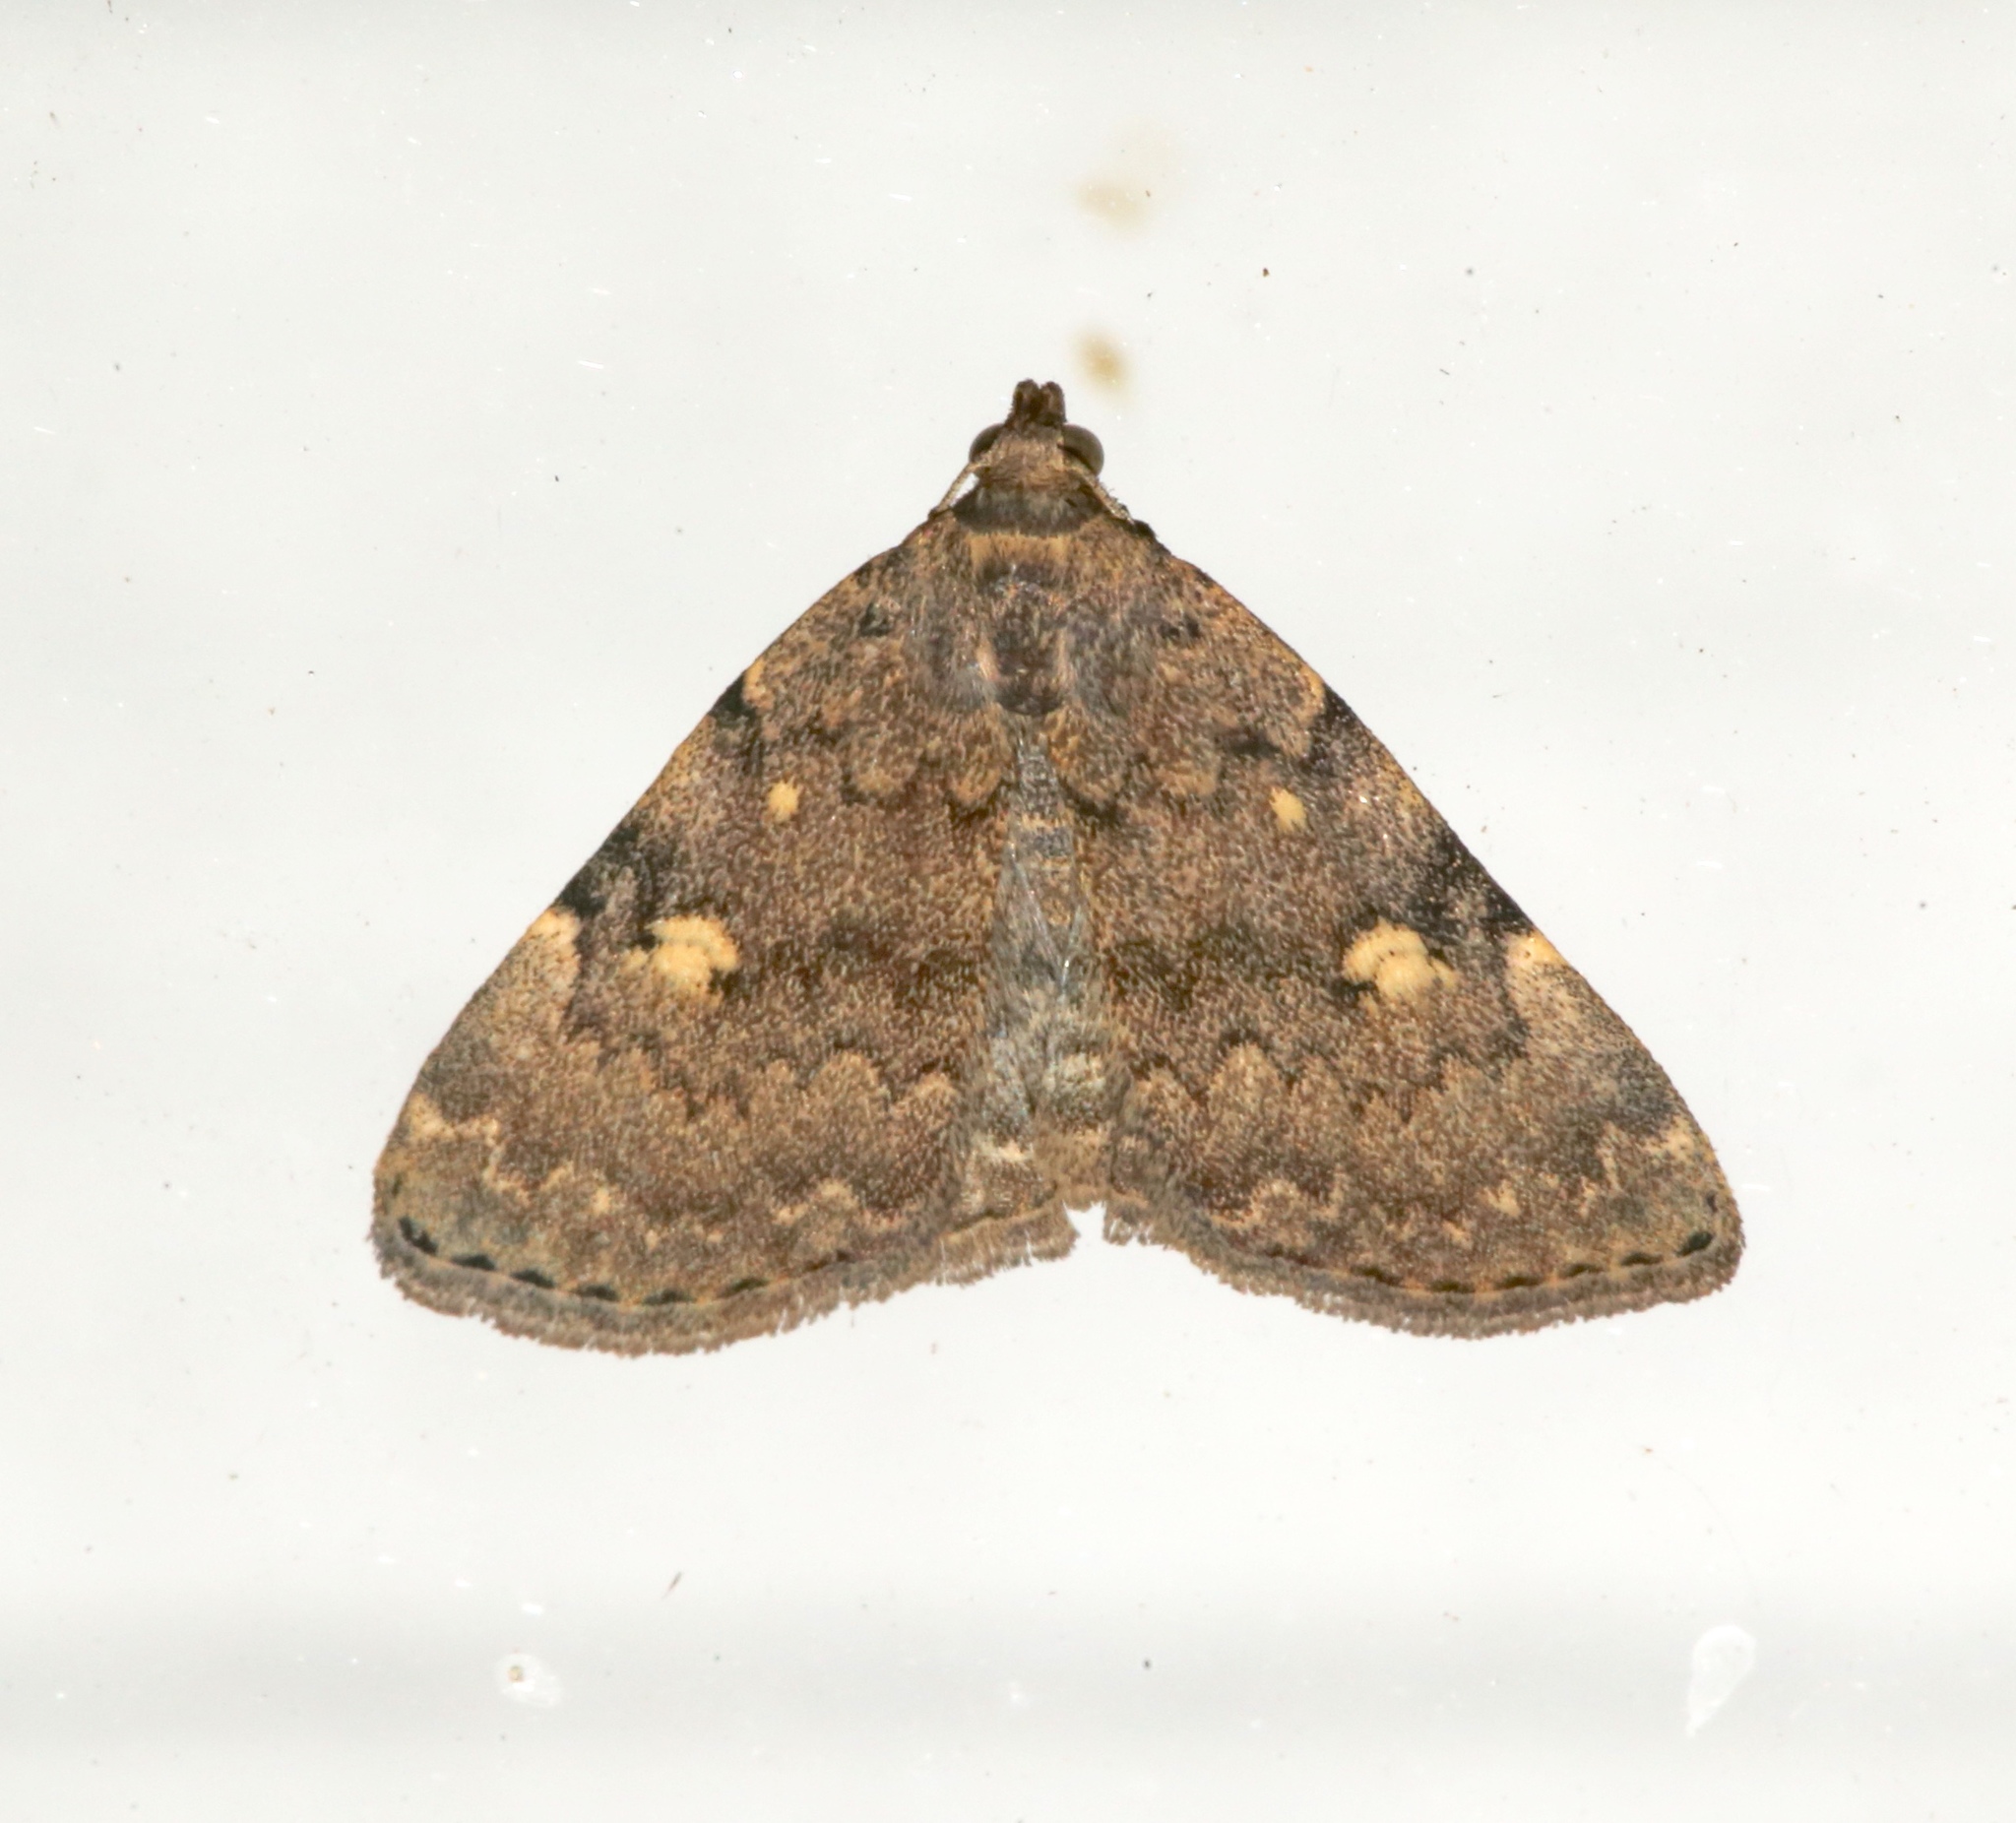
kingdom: Animalia
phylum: Arthropoda
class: Insecta
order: Lepidoptera
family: Erebidae
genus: Idia
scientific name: Idia aemula
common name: Common idia moth
